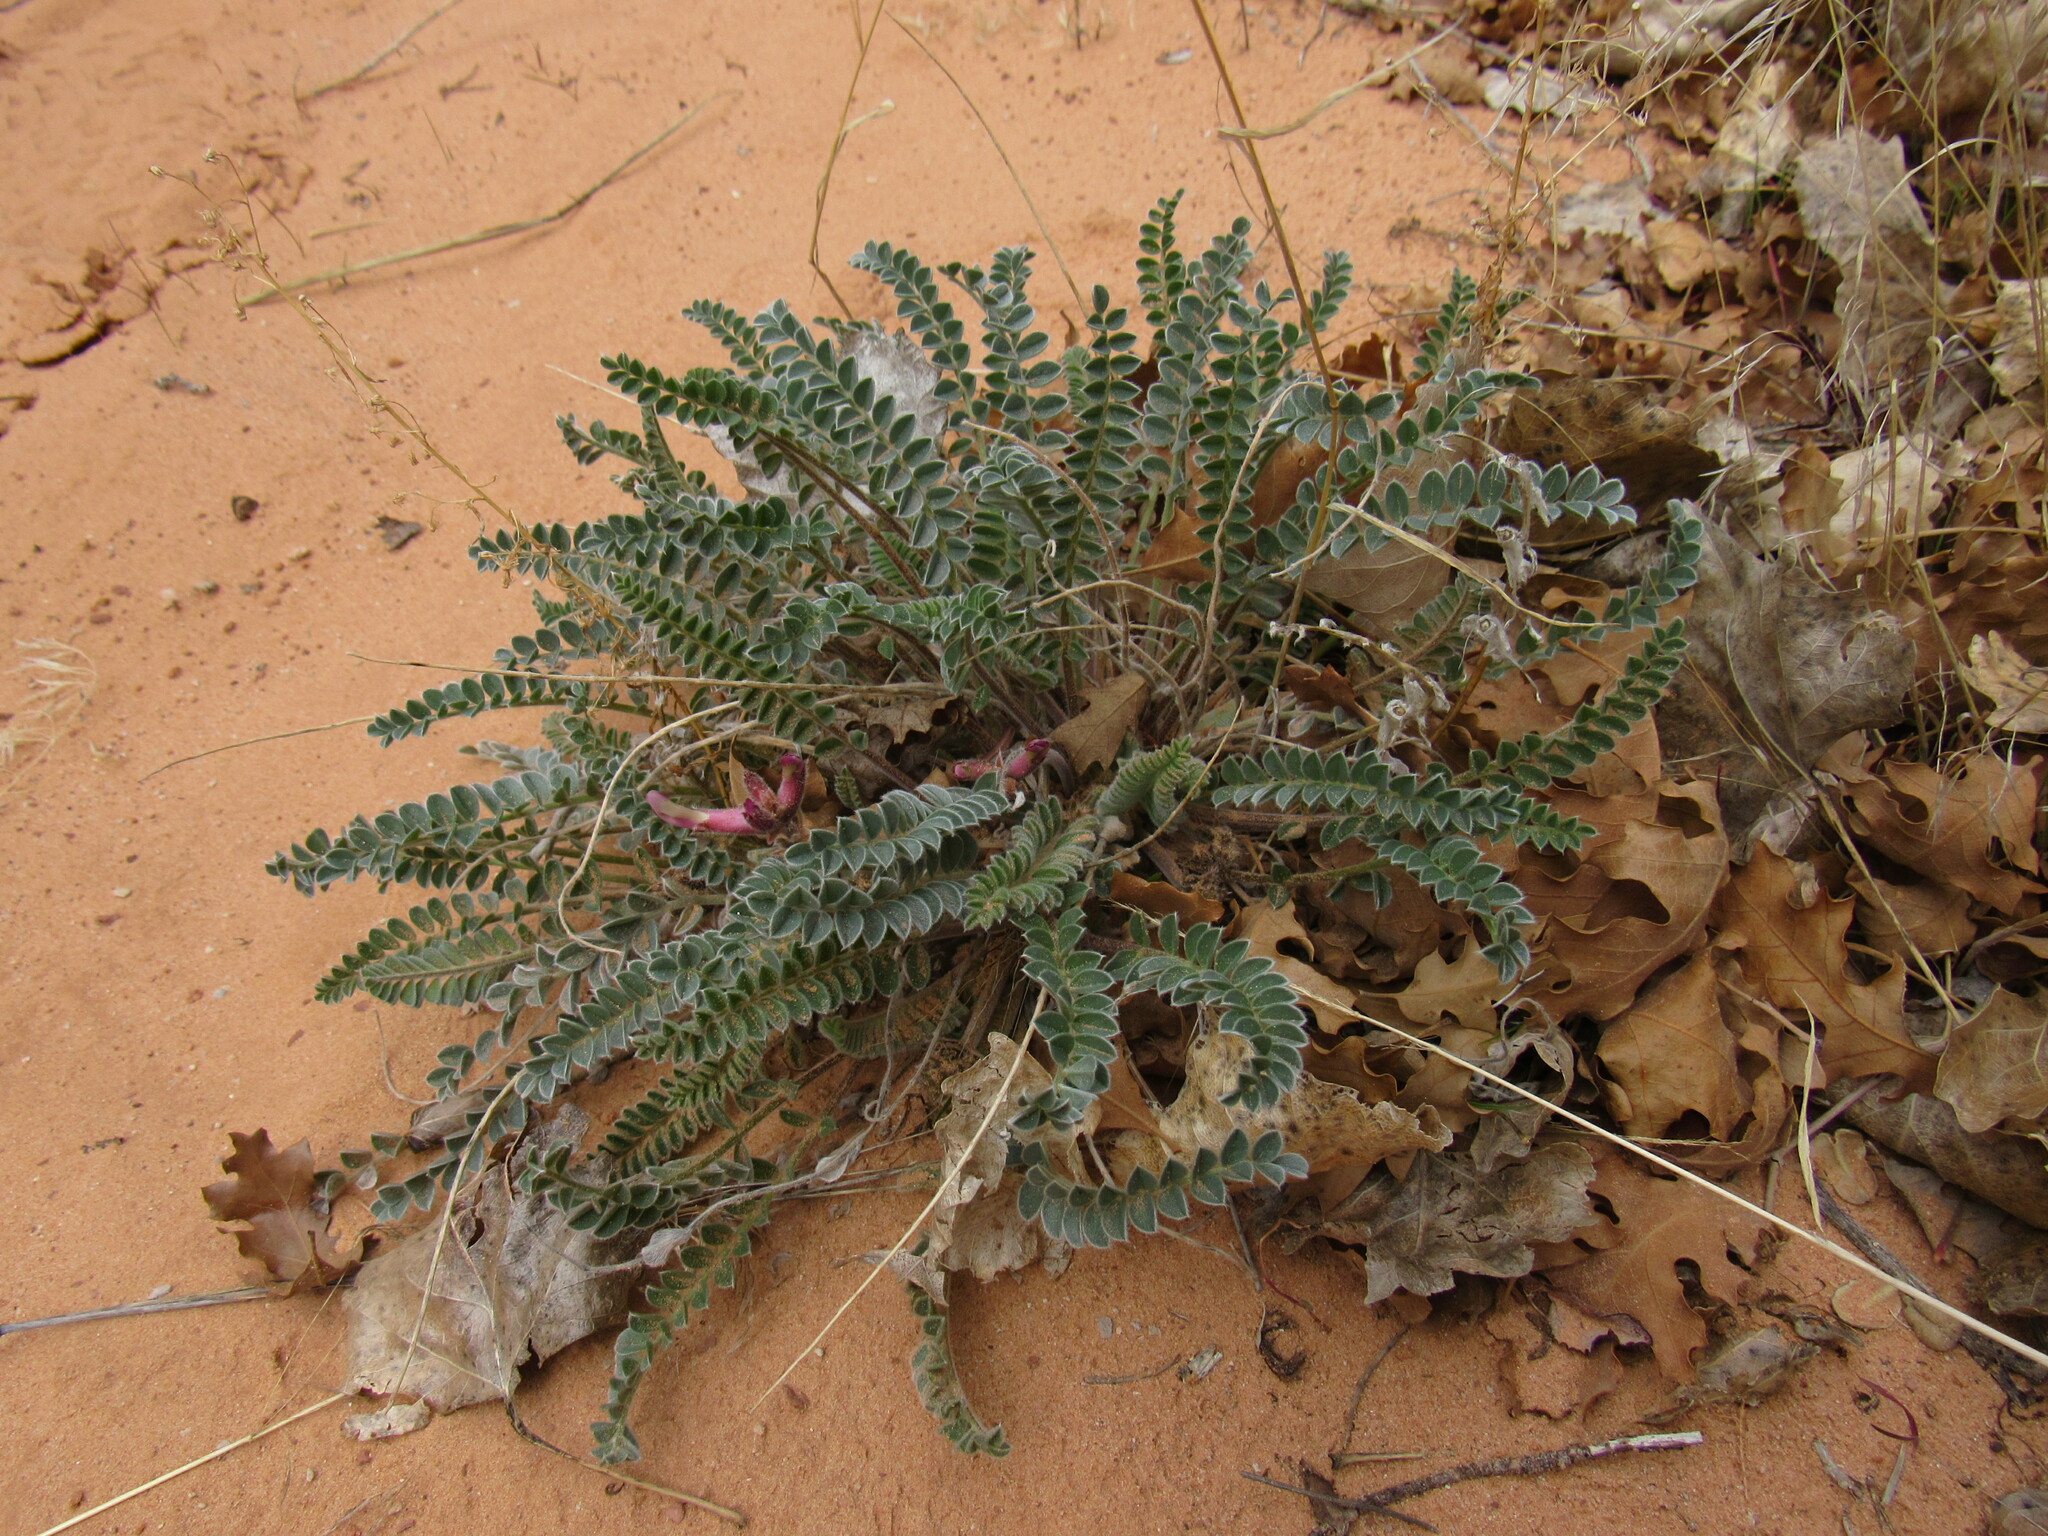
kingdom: Plantae
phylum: Tracheophyta
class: Magnoliopsida
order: Fabales
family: Fabaceae
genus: Astragalus
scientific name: Astragalus mollissimus
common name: Woolly locoweed
